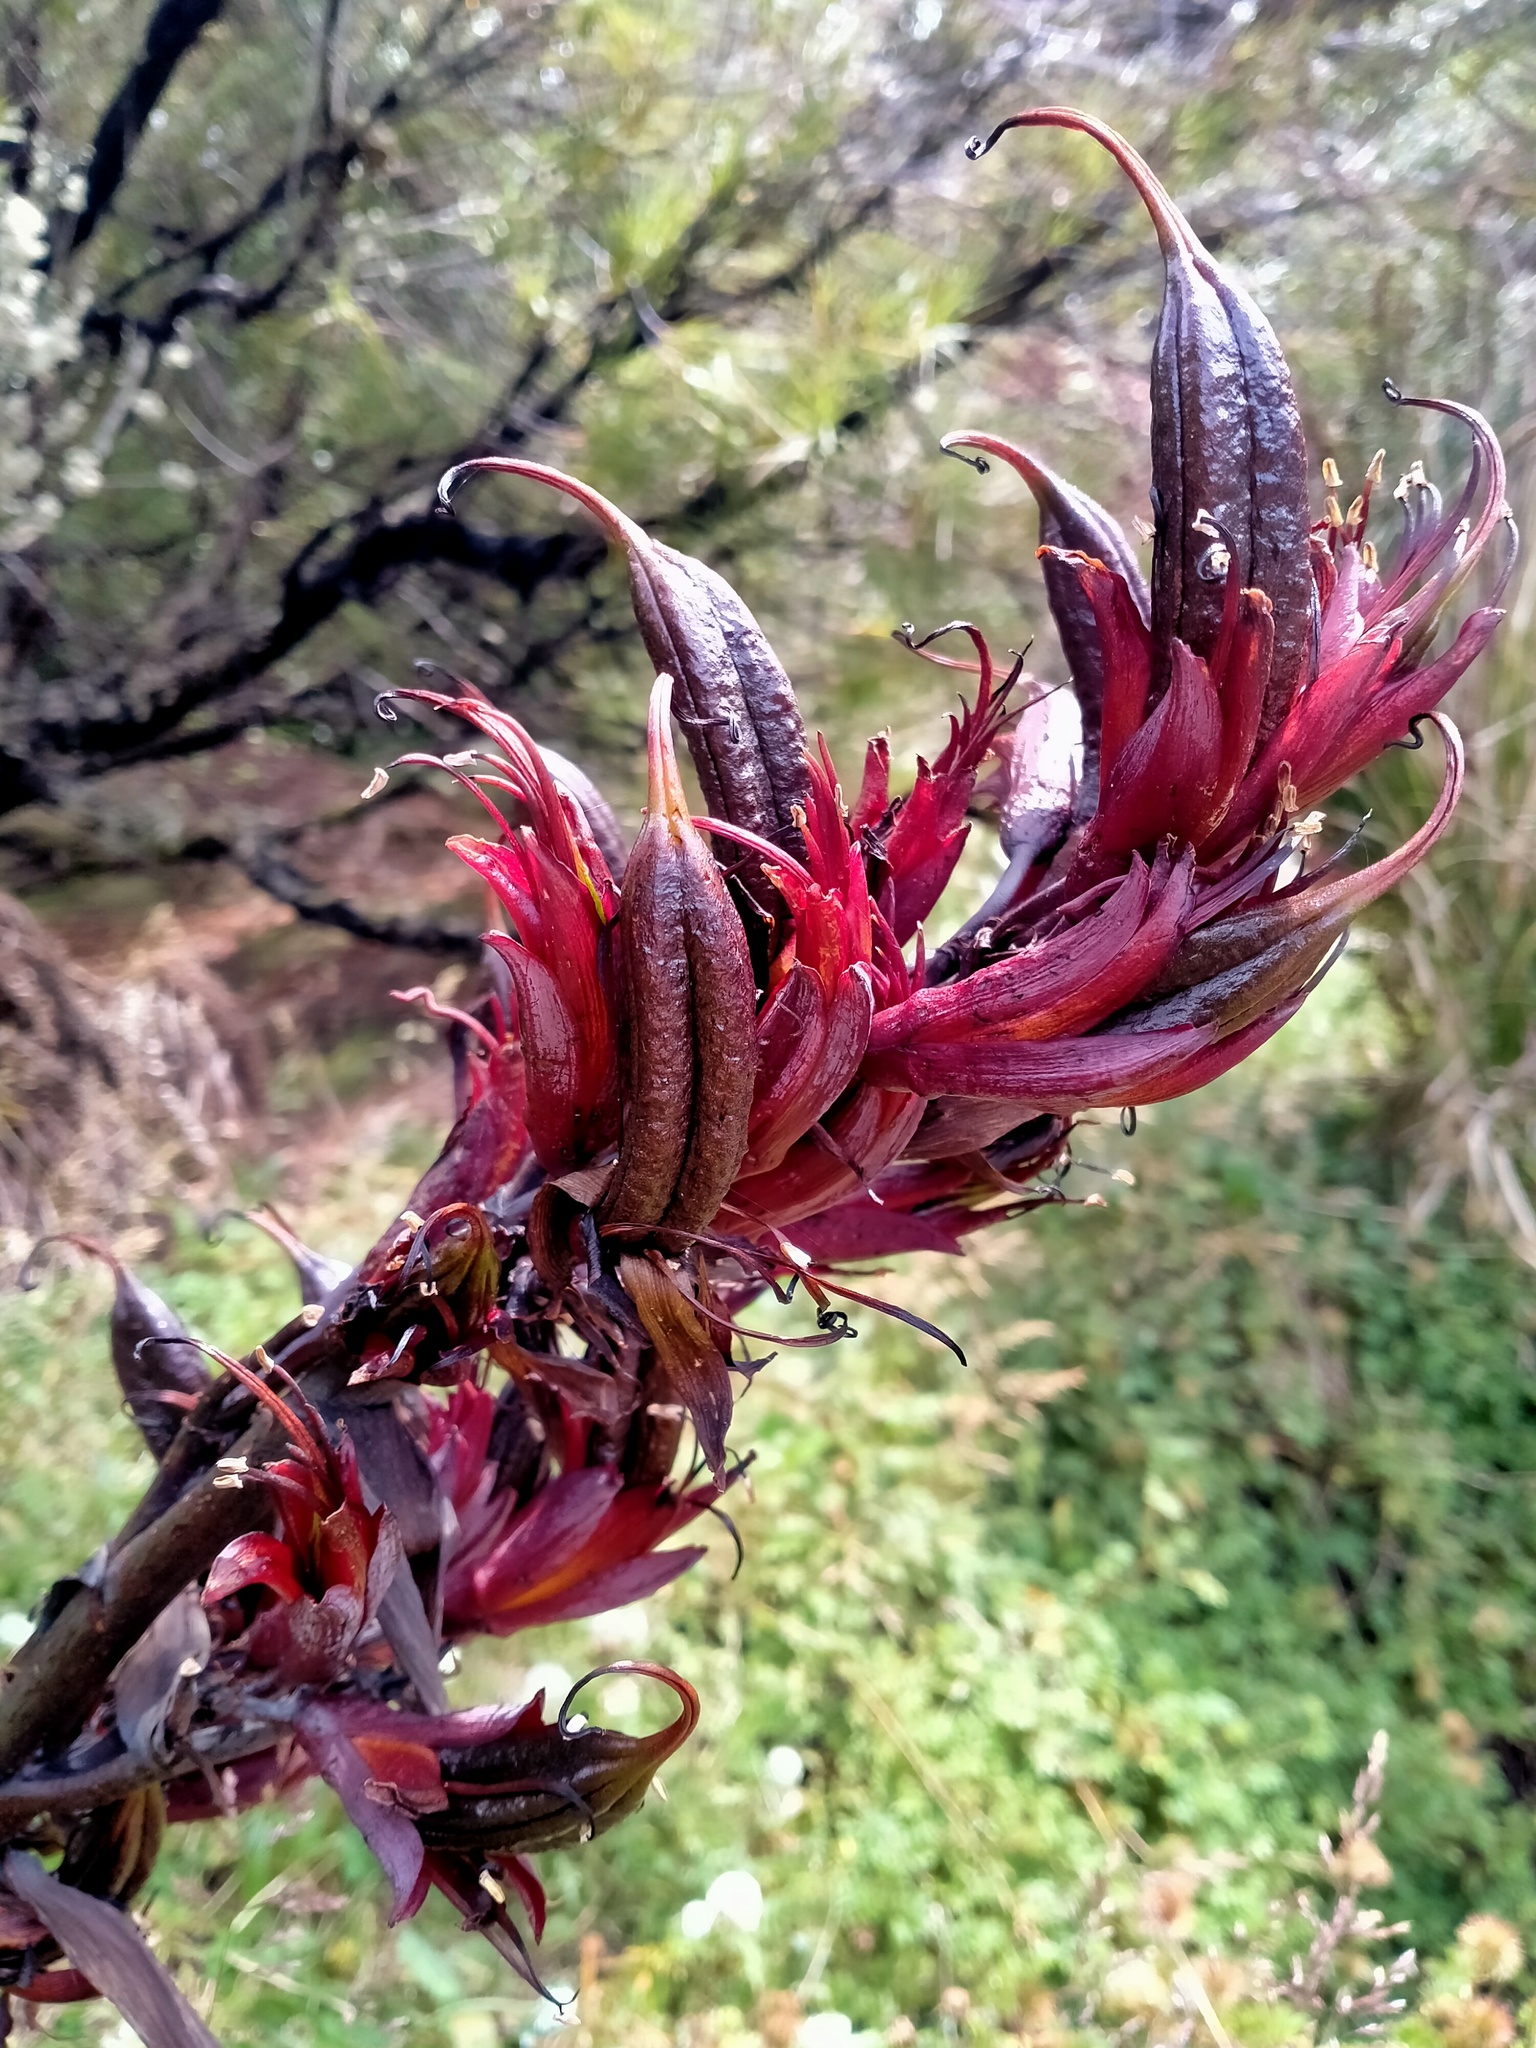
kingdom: Plantae
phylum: Tracheophyta
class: Liliopsida
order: Asparagales
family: Asphodelaceae
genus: Phormium
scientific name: Phormium tenax
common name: New zealand flax
